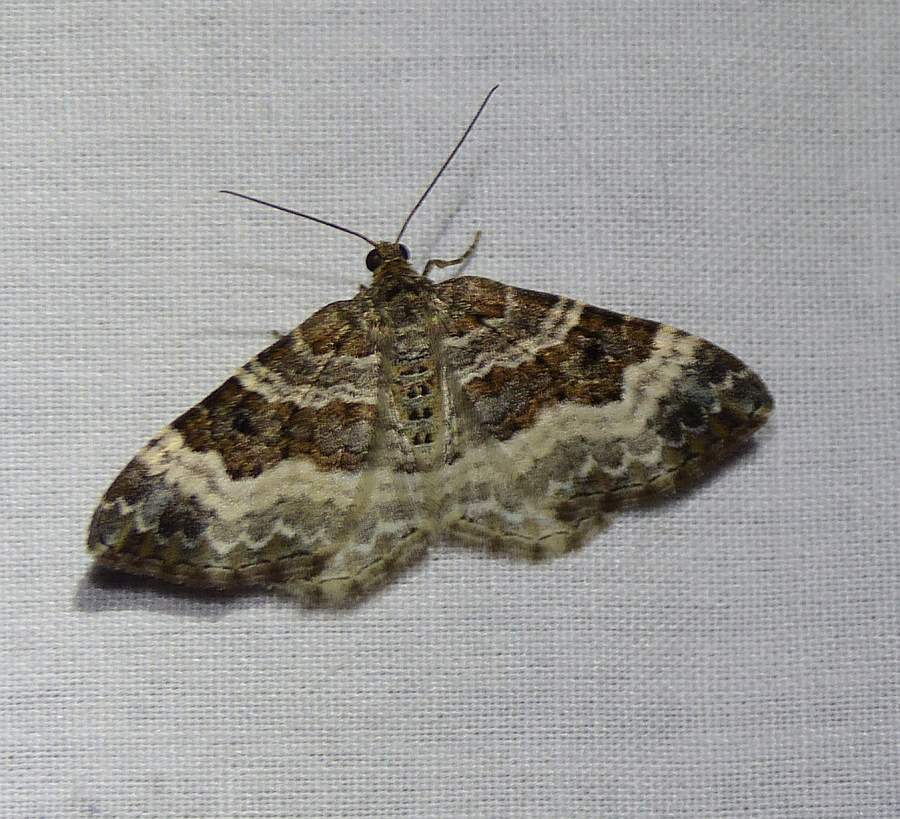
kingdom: Animalia
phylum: Arthropoda
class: Insecta
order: Lepidoptera
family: Geometridae
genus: Epirrhoe
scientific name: Epirrhoe alternata
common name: Common carpet
